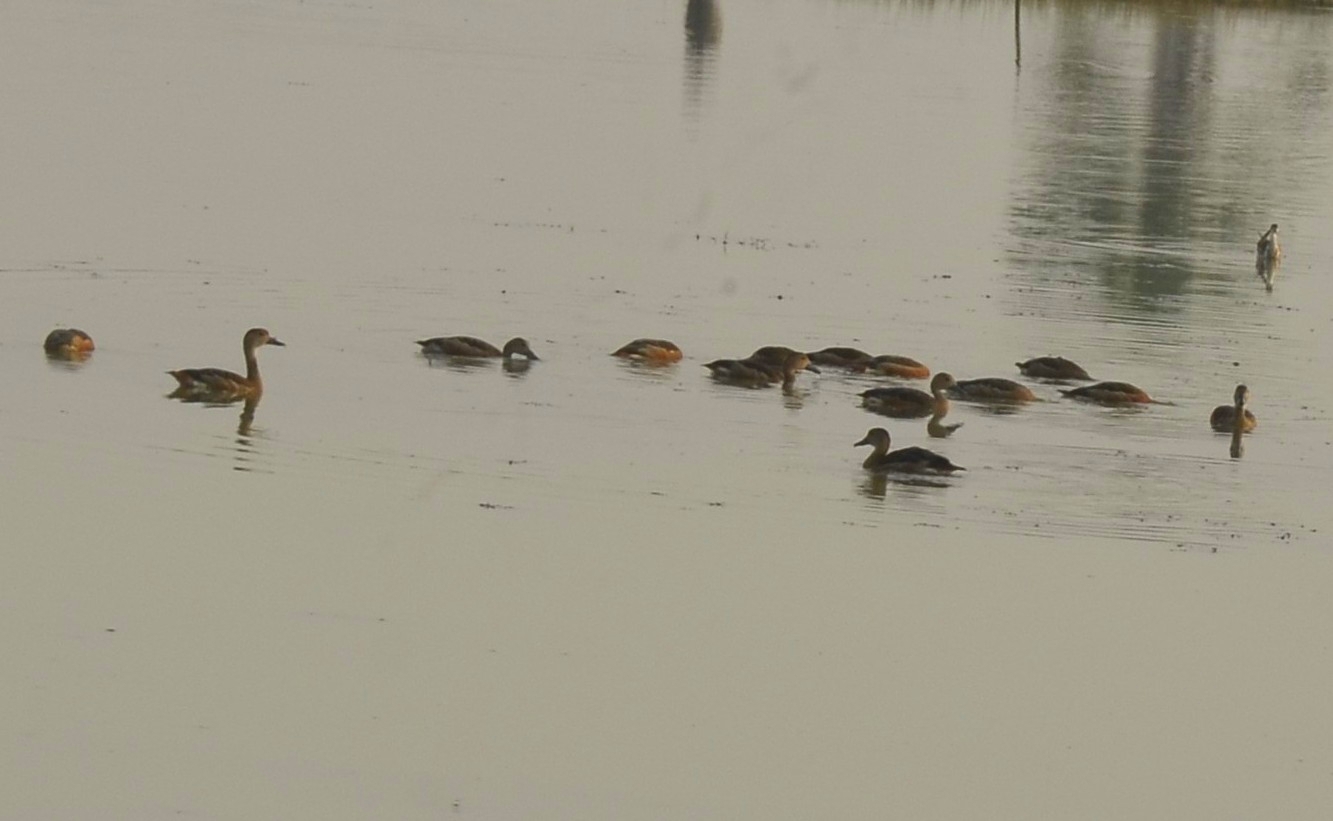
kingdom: Animalia
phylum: Chordata
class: Aves
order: Anseriformes
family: Anatidae
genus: Dendrocygna
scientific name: Dendrocygna javanica
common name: Lesser whistling-duck
